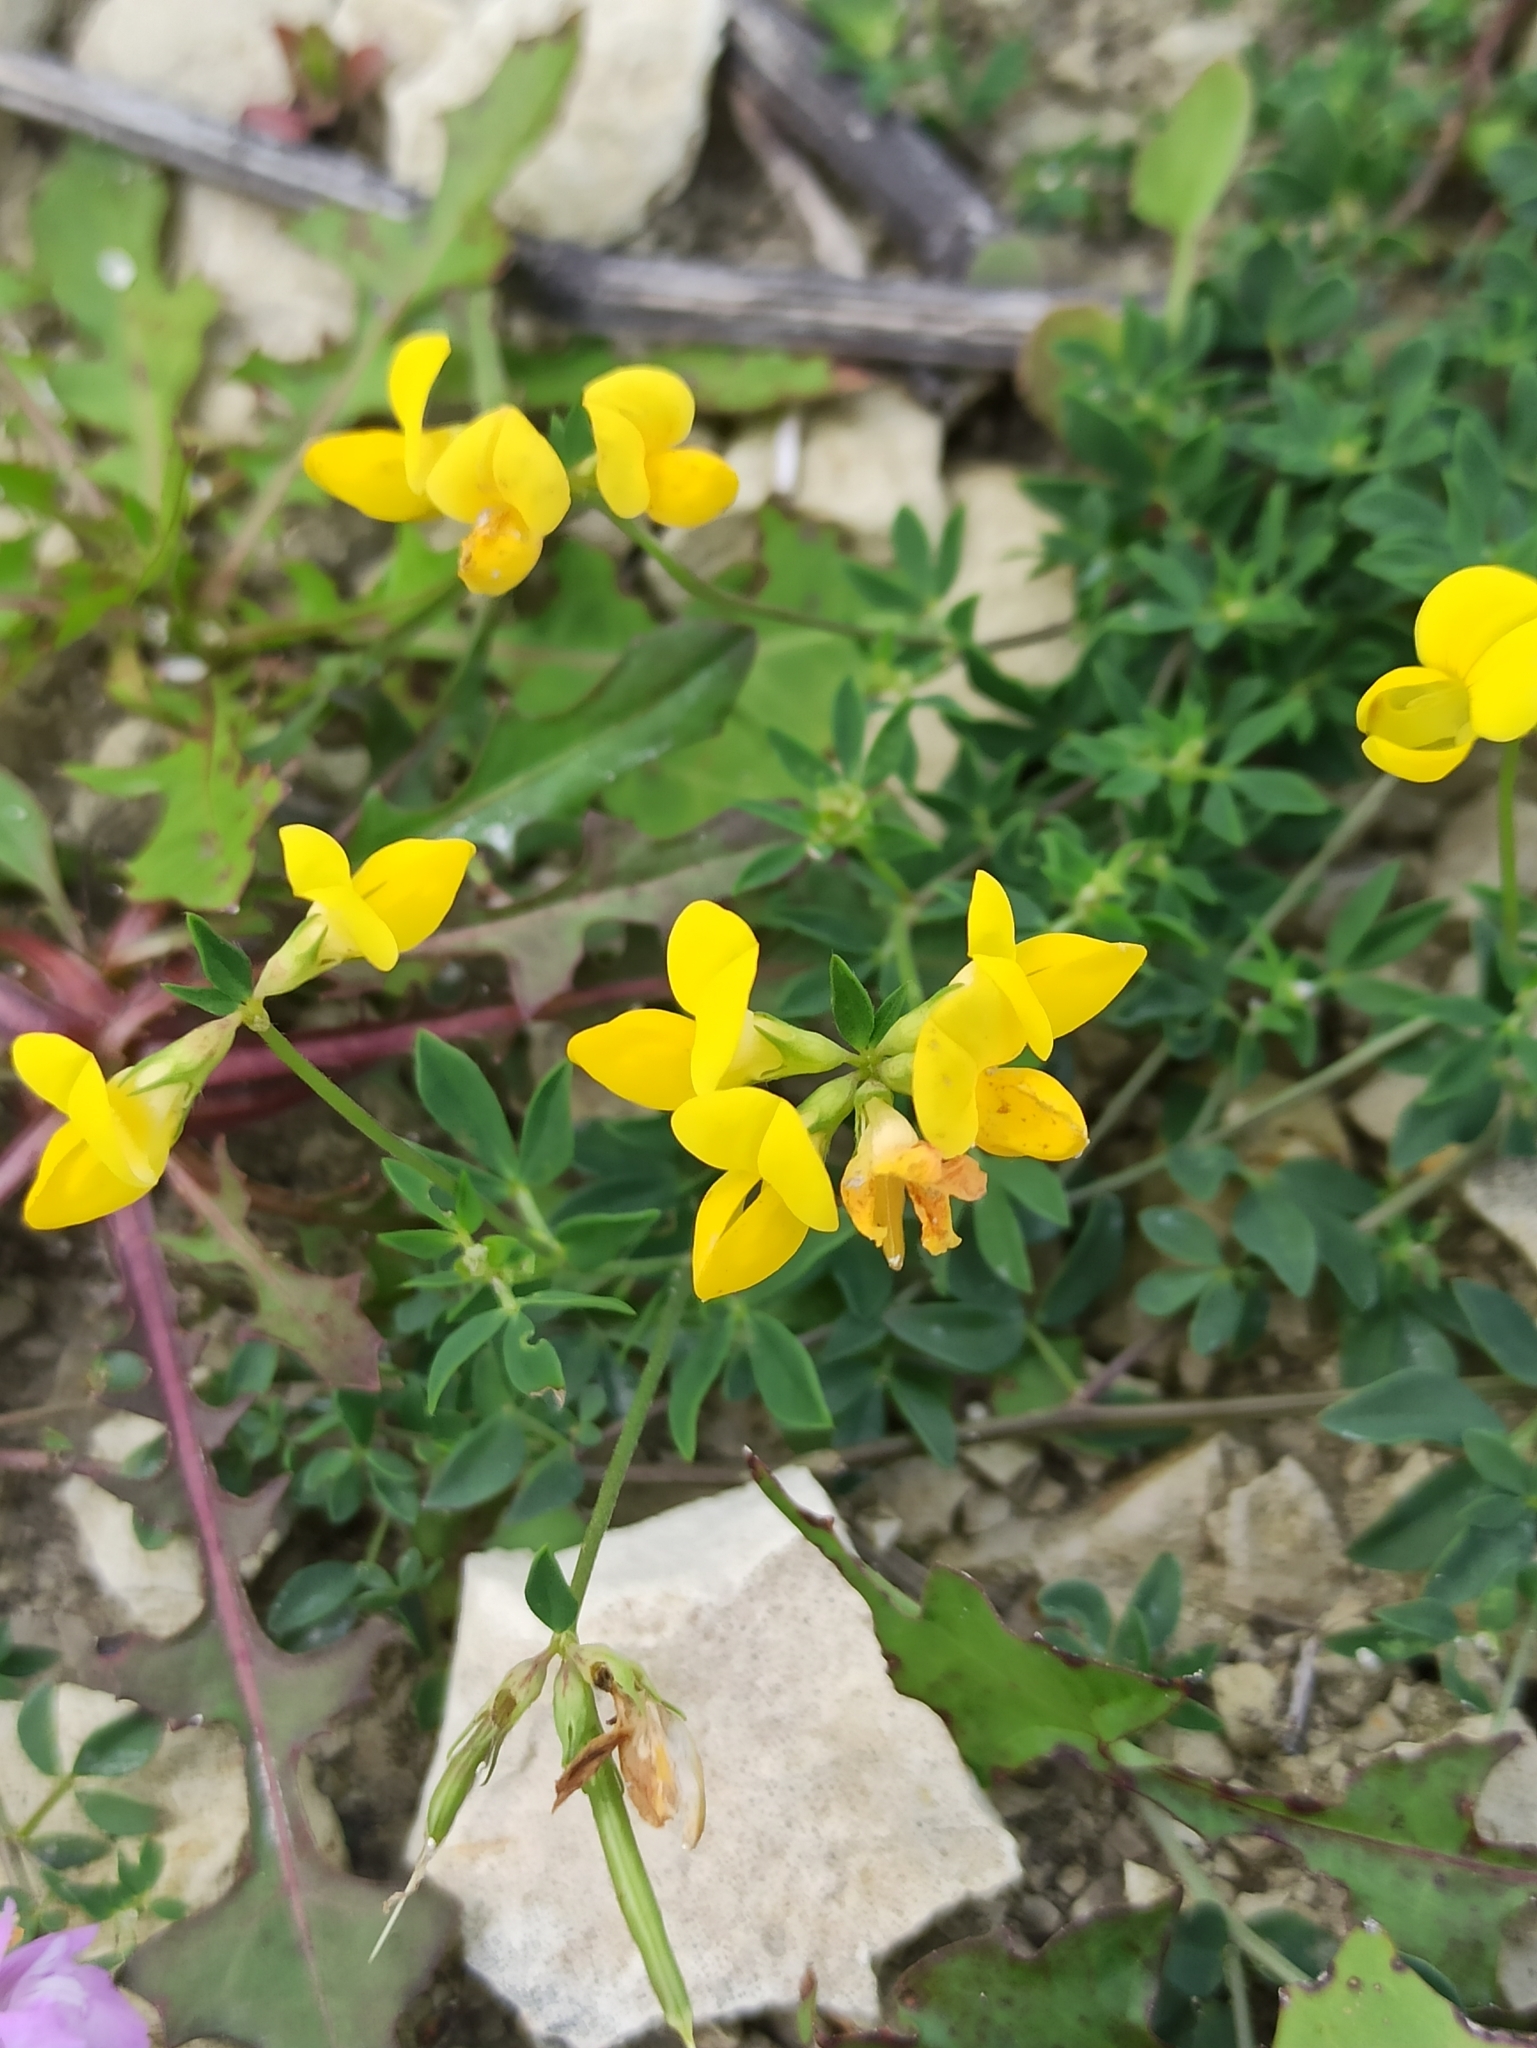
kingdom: Plantae
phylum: Tracheophyta
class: Magnoliopsida
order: Fabales
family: Fabaceae
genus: Lotus
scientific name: Lotus corniculatus
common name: Common bird's-foot-trefoil
